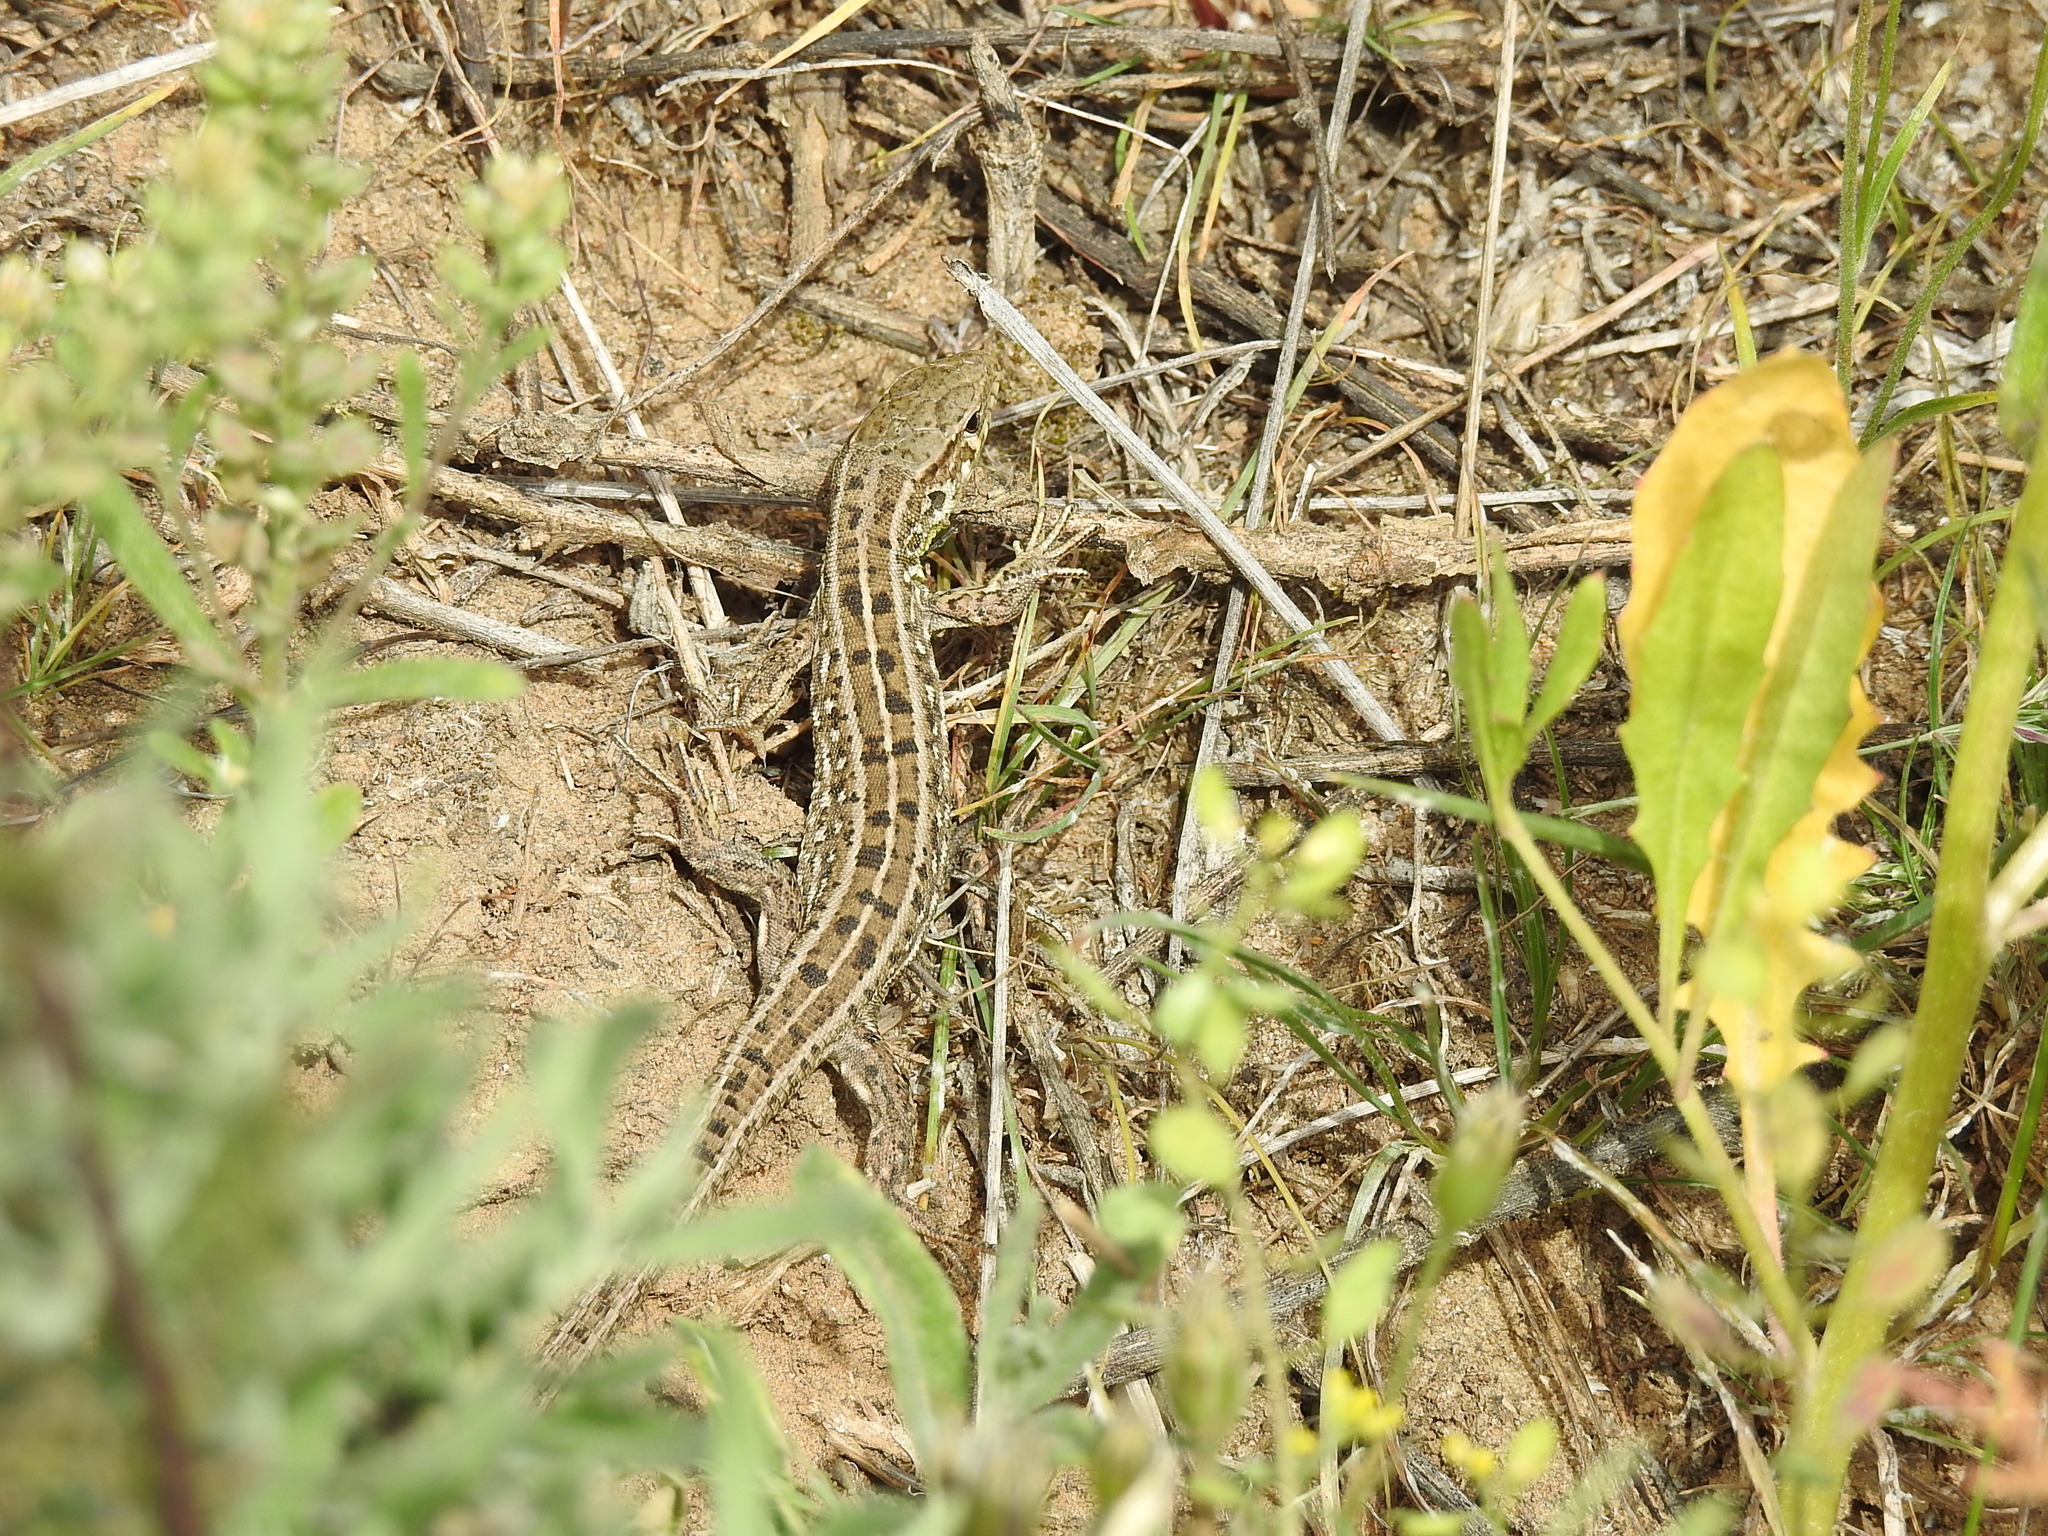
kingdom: Animalia
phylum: Chordata
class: Squamata
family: Lacertidae
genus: Lacerta
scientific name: Lacerta agilis
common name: Sand lizard
